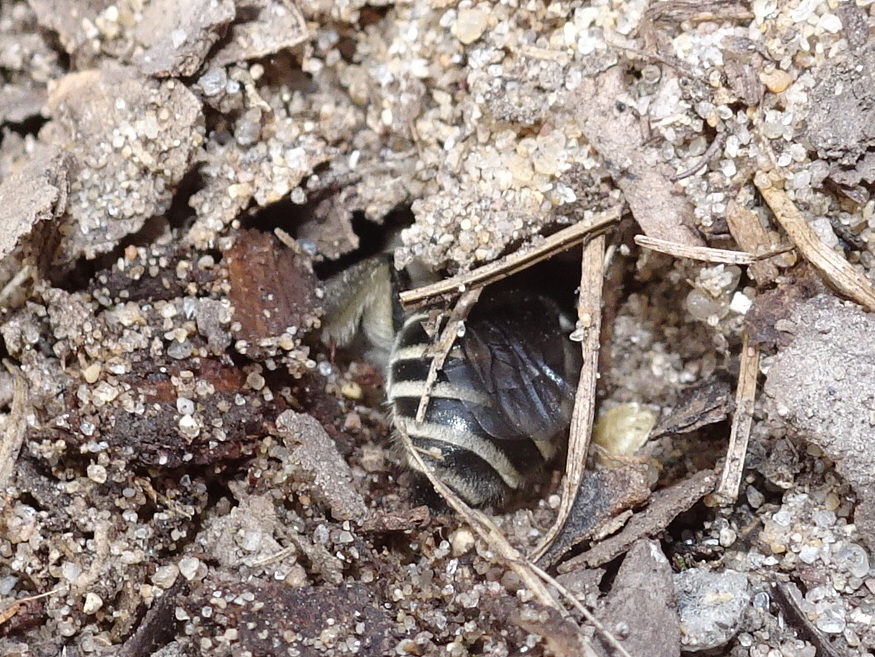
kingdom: Animalia
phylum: Arthropoda
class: Insecta
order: Hymenoptera
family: Colletidae
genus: Colletes
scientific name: Colletes inaequalis
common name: Unequal cellophane bee
